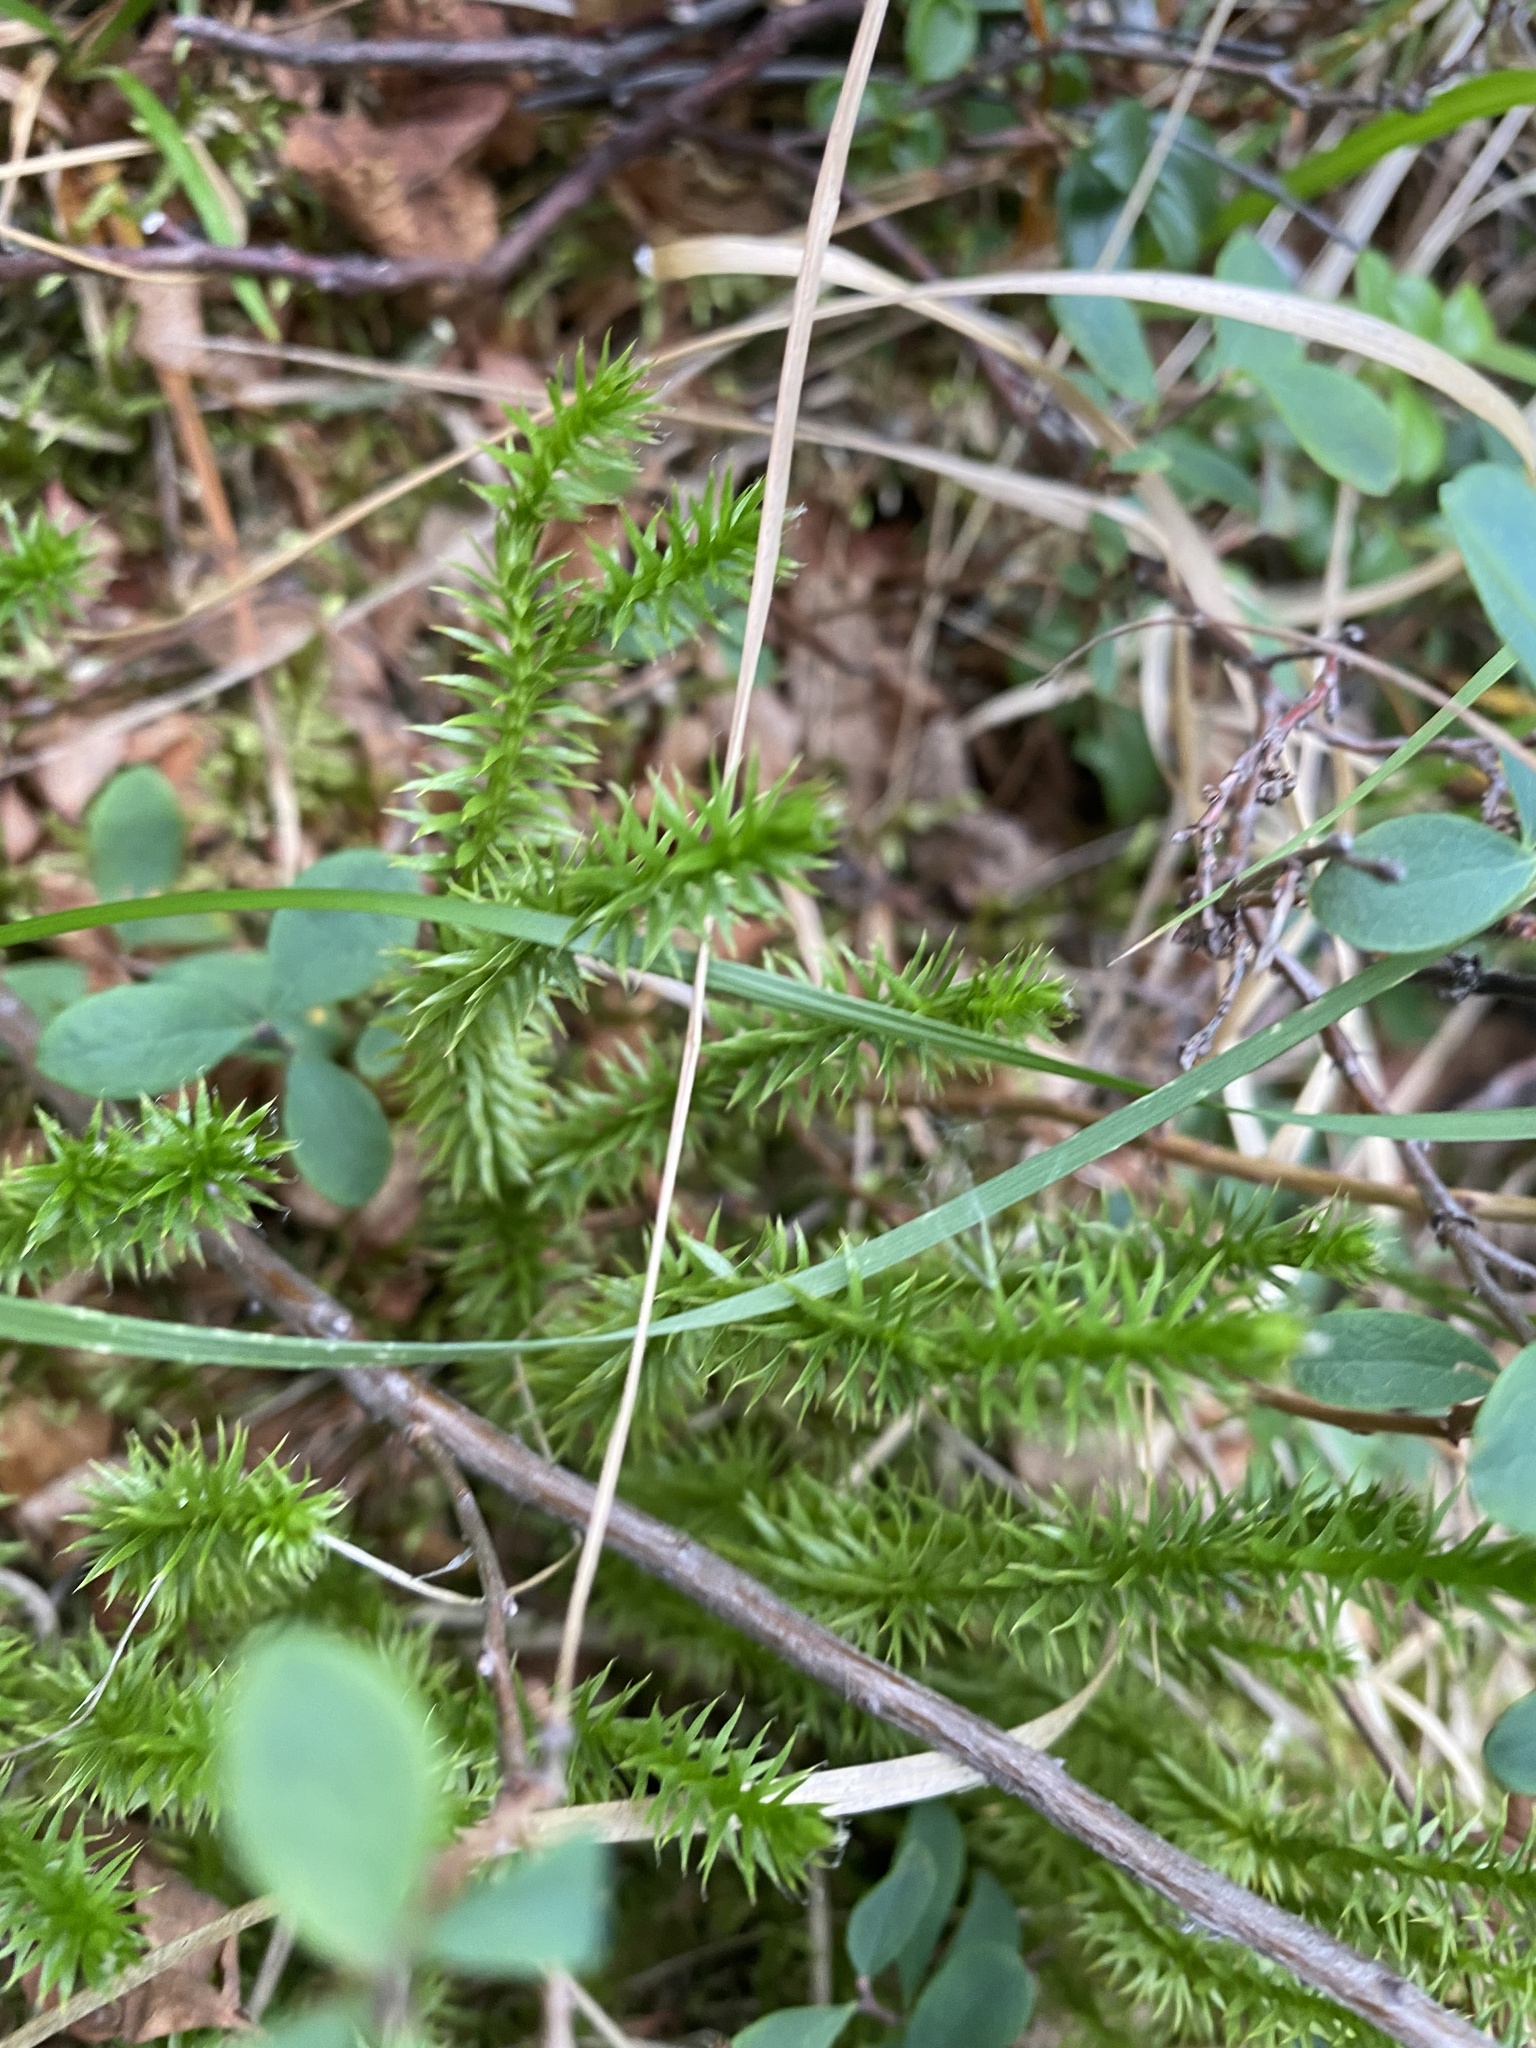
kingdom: Plantae
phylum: Tracheophyta
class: Lycopodiopsida
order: Lycopodiales
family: Lycopodiaceae
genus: Spinulum
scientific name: Spinulum annotinum
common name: Interrupted club-moss
